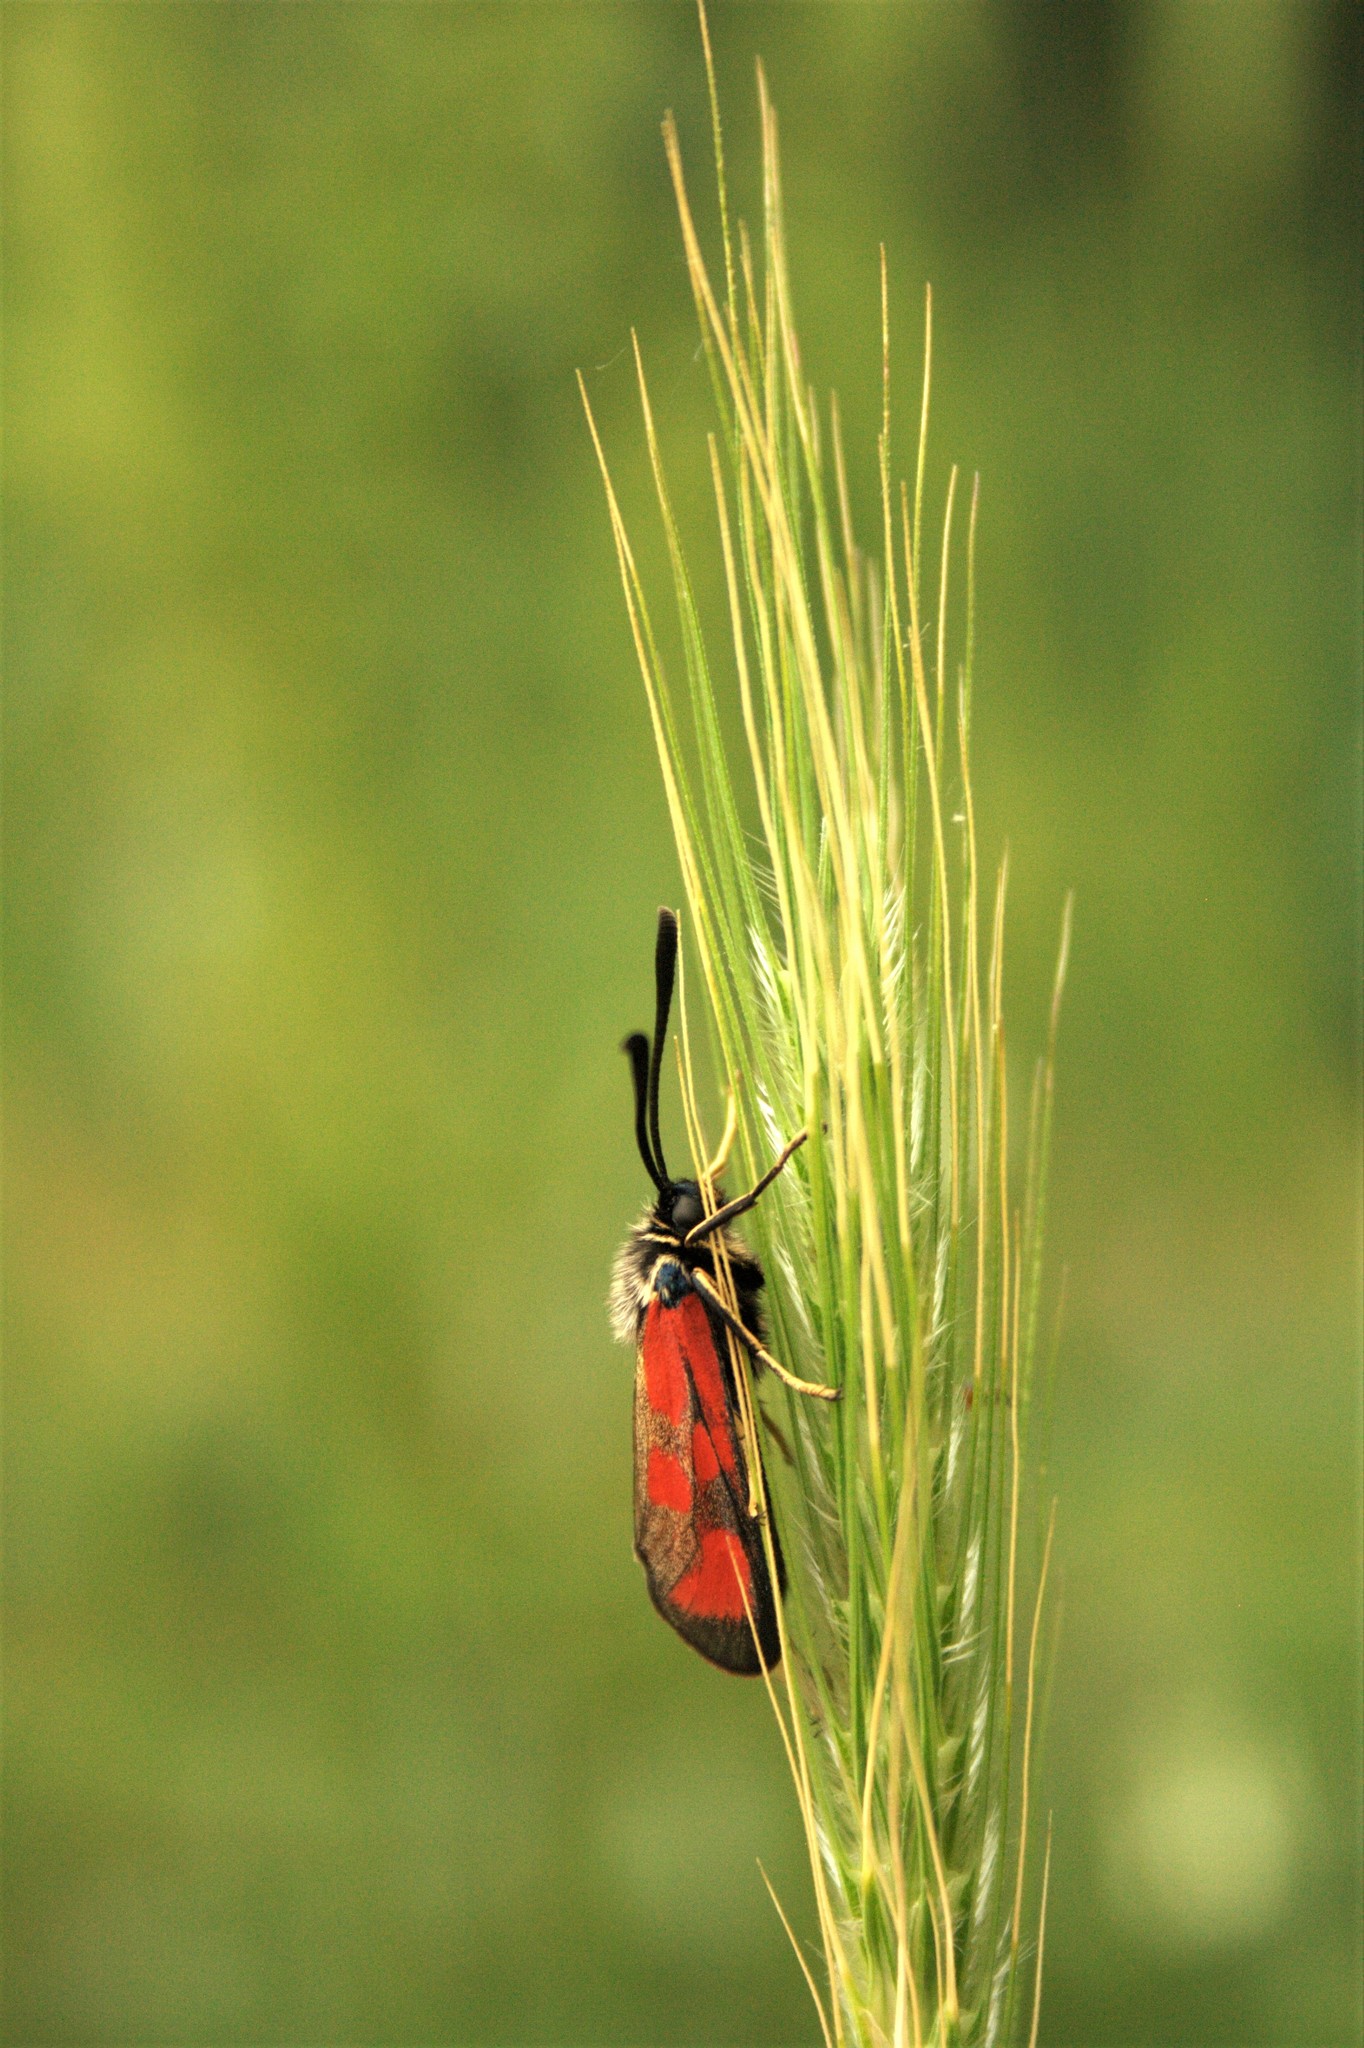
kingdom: Animalia
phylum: Arthropoda
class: Insecta
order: Lepidoptera
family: Zygaenidae
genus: Zygaena
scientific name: Zygaena loti
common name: Slender scotch burnet
